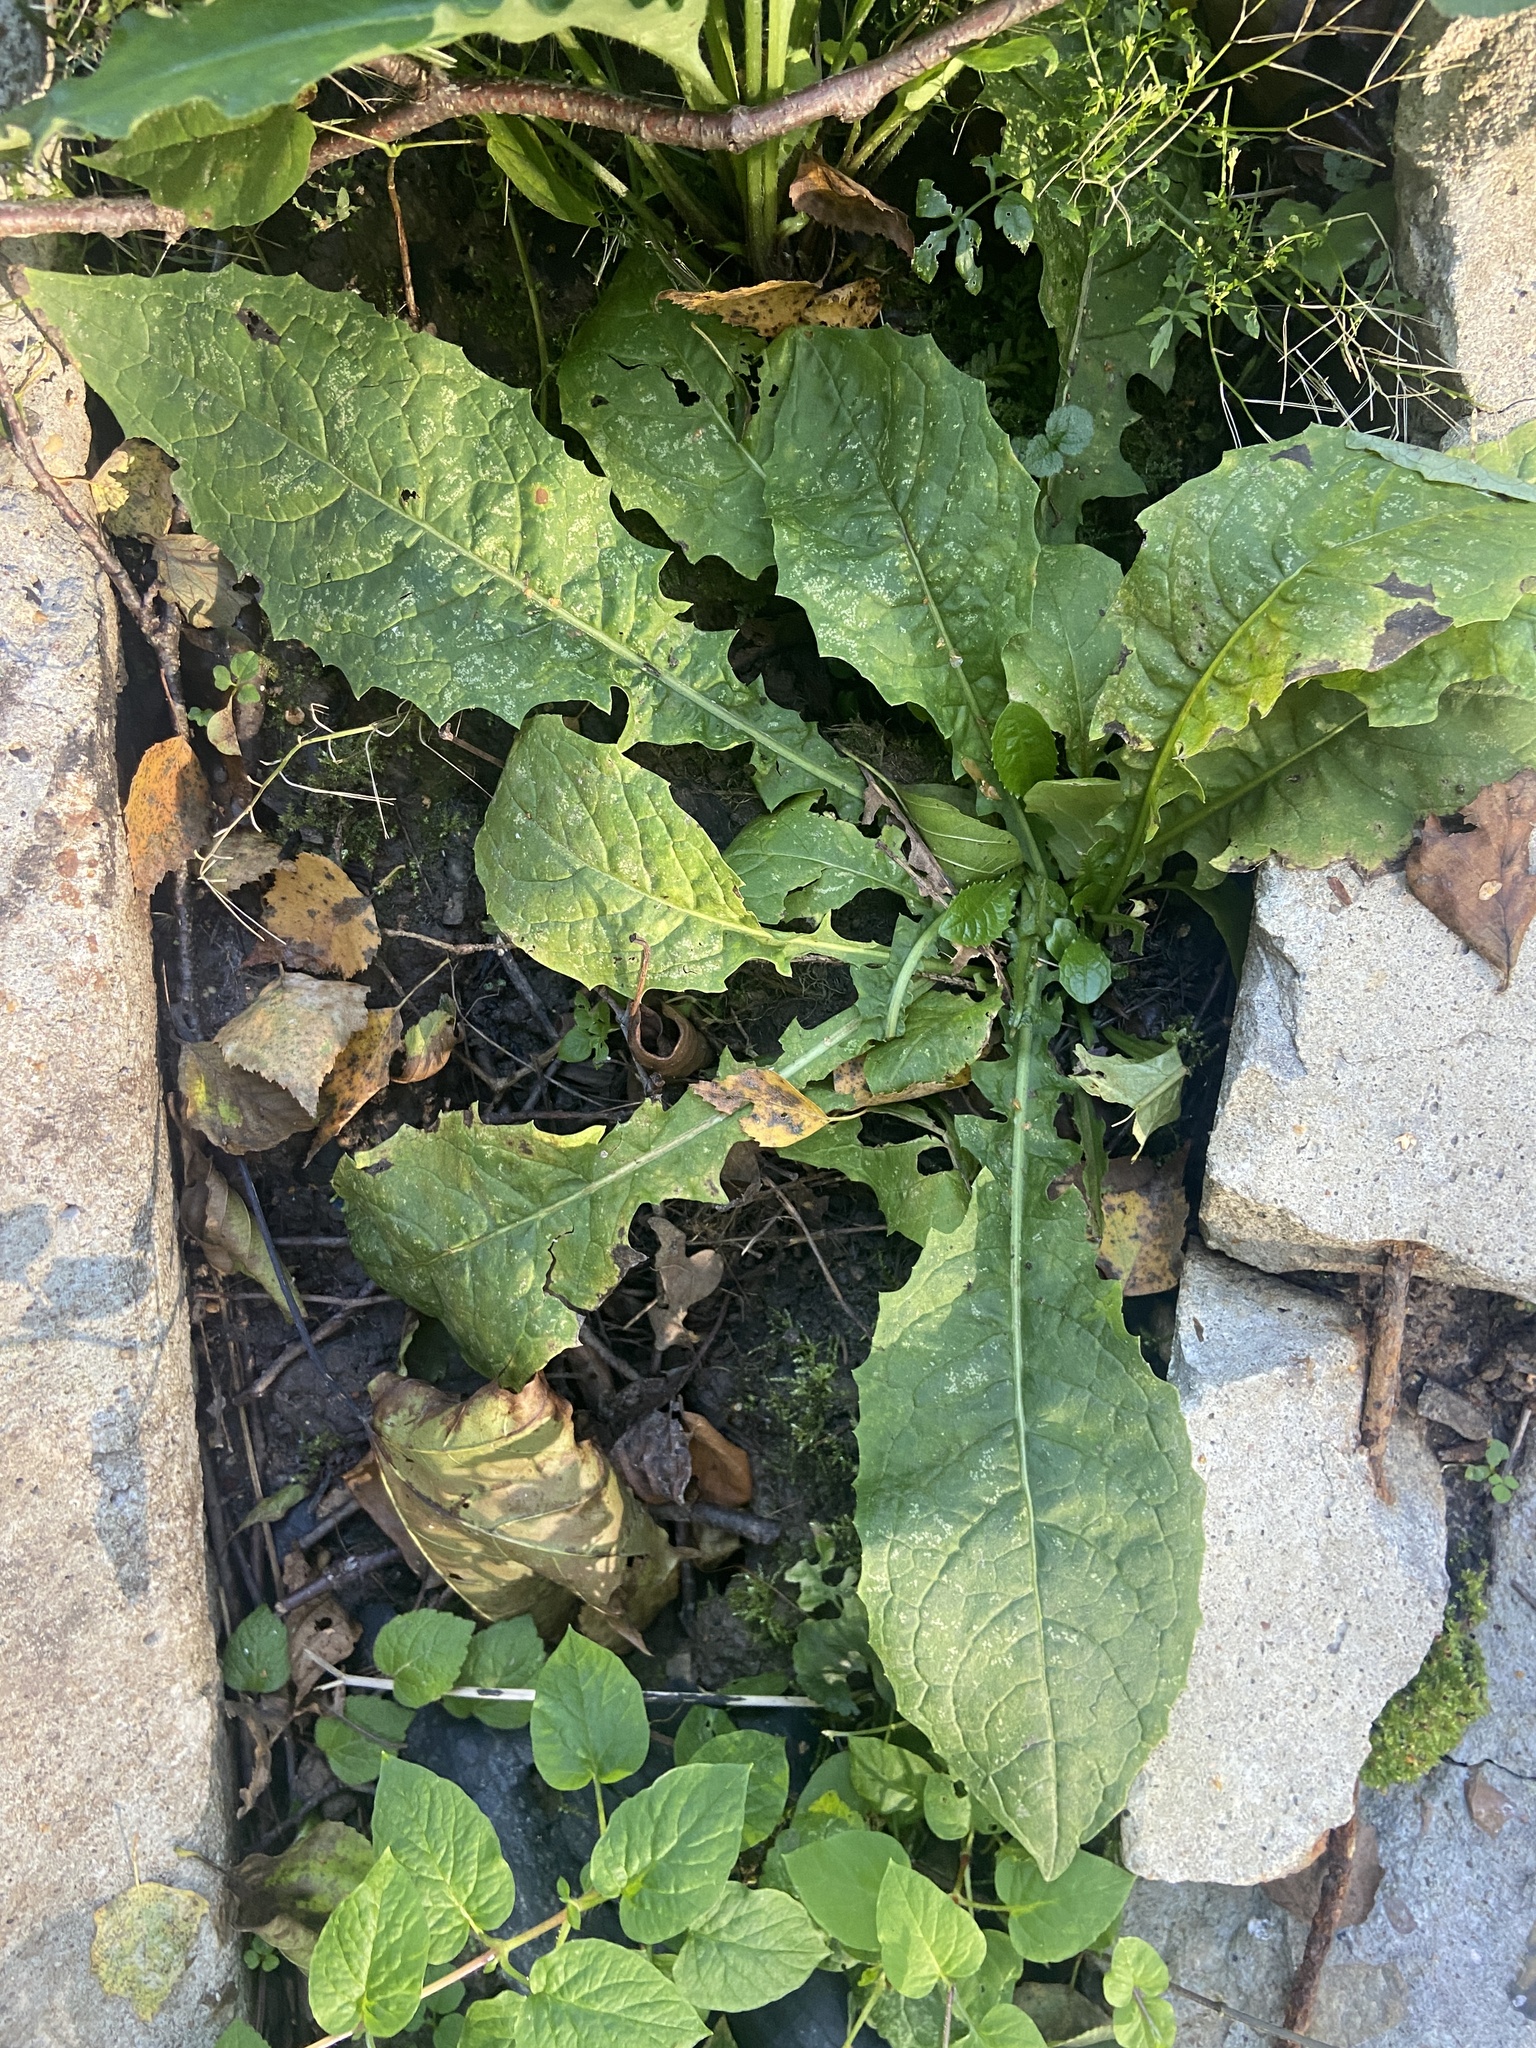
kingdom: Plantae
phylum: Tracheophyta
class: Magnoliopsida
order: Asterales
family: Asteraceae
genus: Crepis
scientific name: Crepis paludosa
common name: Marsh hawk's-beard
